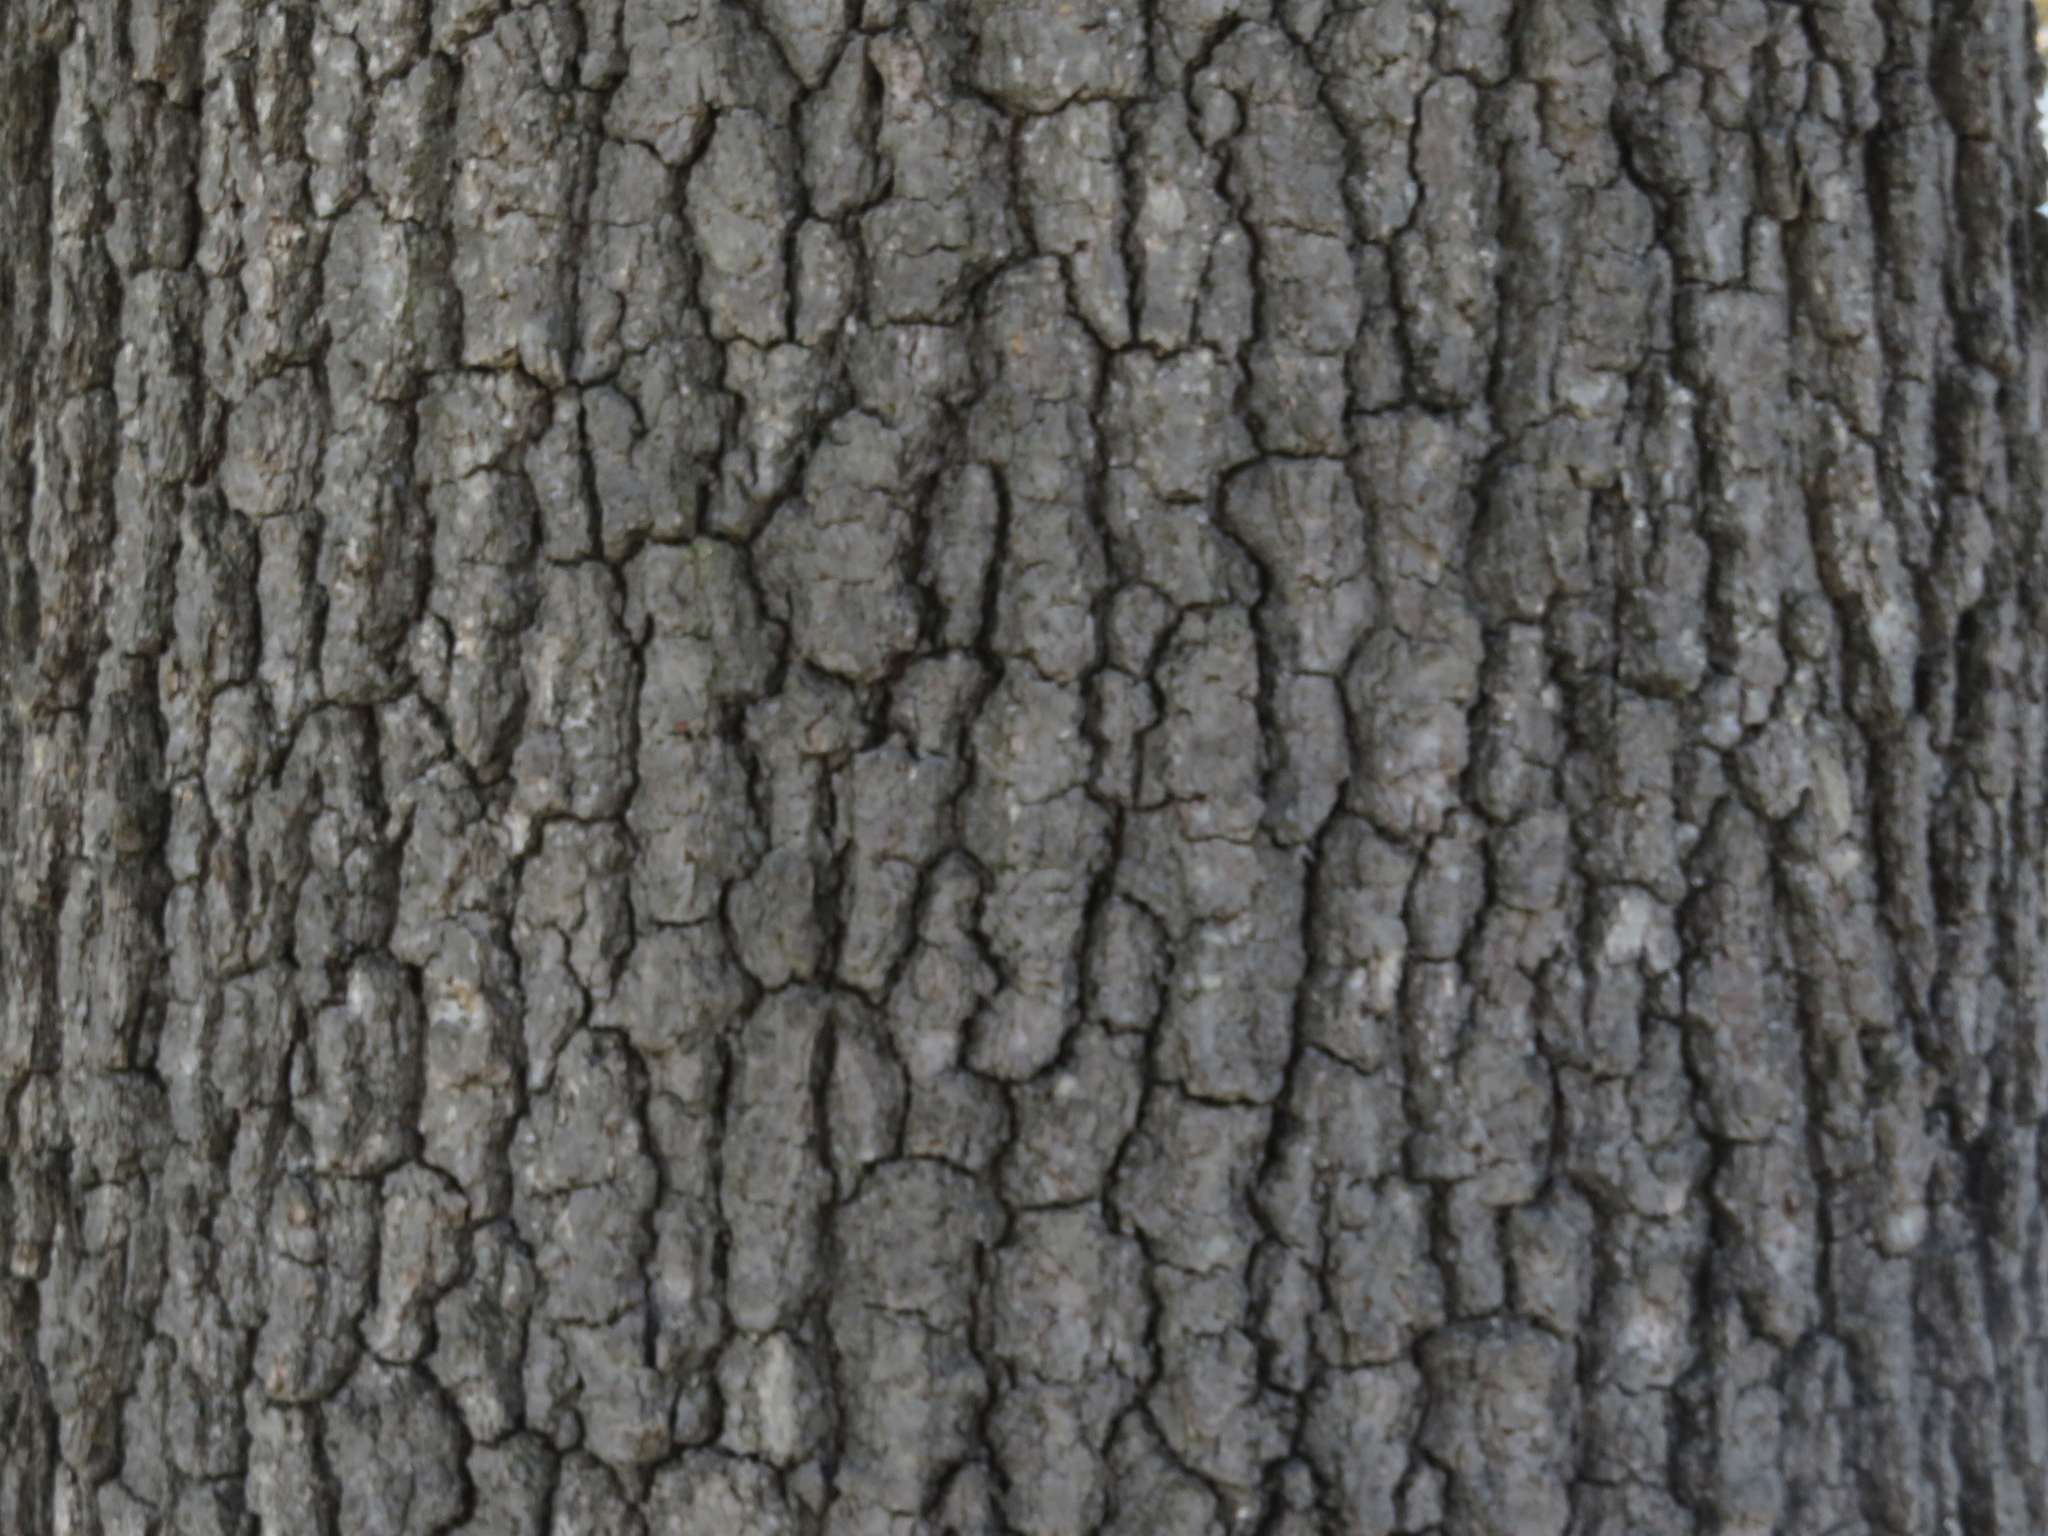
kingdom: Plantae
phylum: Tracheophyta
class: Magnoliopsida
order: Fagales
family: Fagaceae
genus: Quercus
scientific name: Quercus velutina
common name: Black oak
